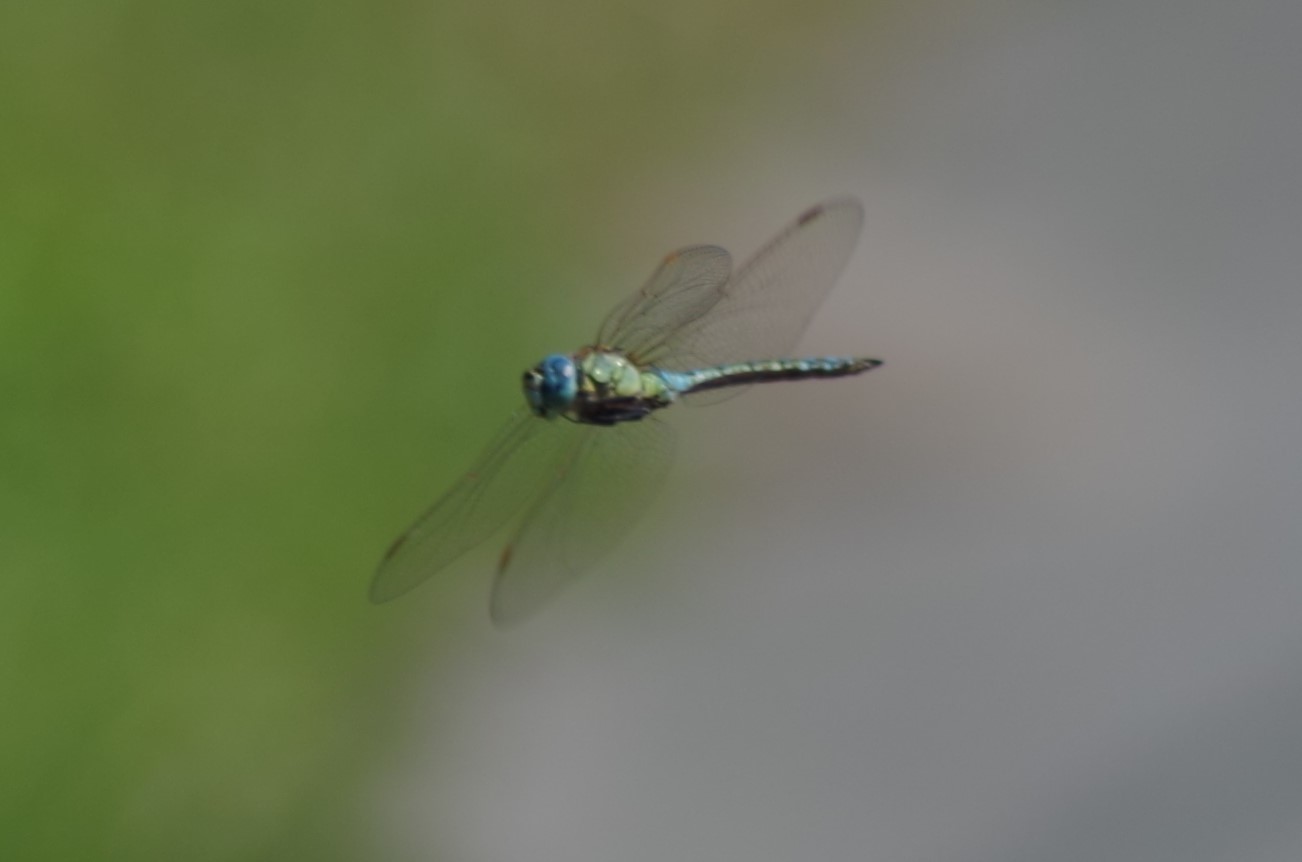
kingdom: Animalia
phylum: Arthropoda
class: Insecta
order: Odonata
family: Aeshnidae
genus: Aeshna
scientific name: Aeshna affinis
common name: Southern migrant hawker
